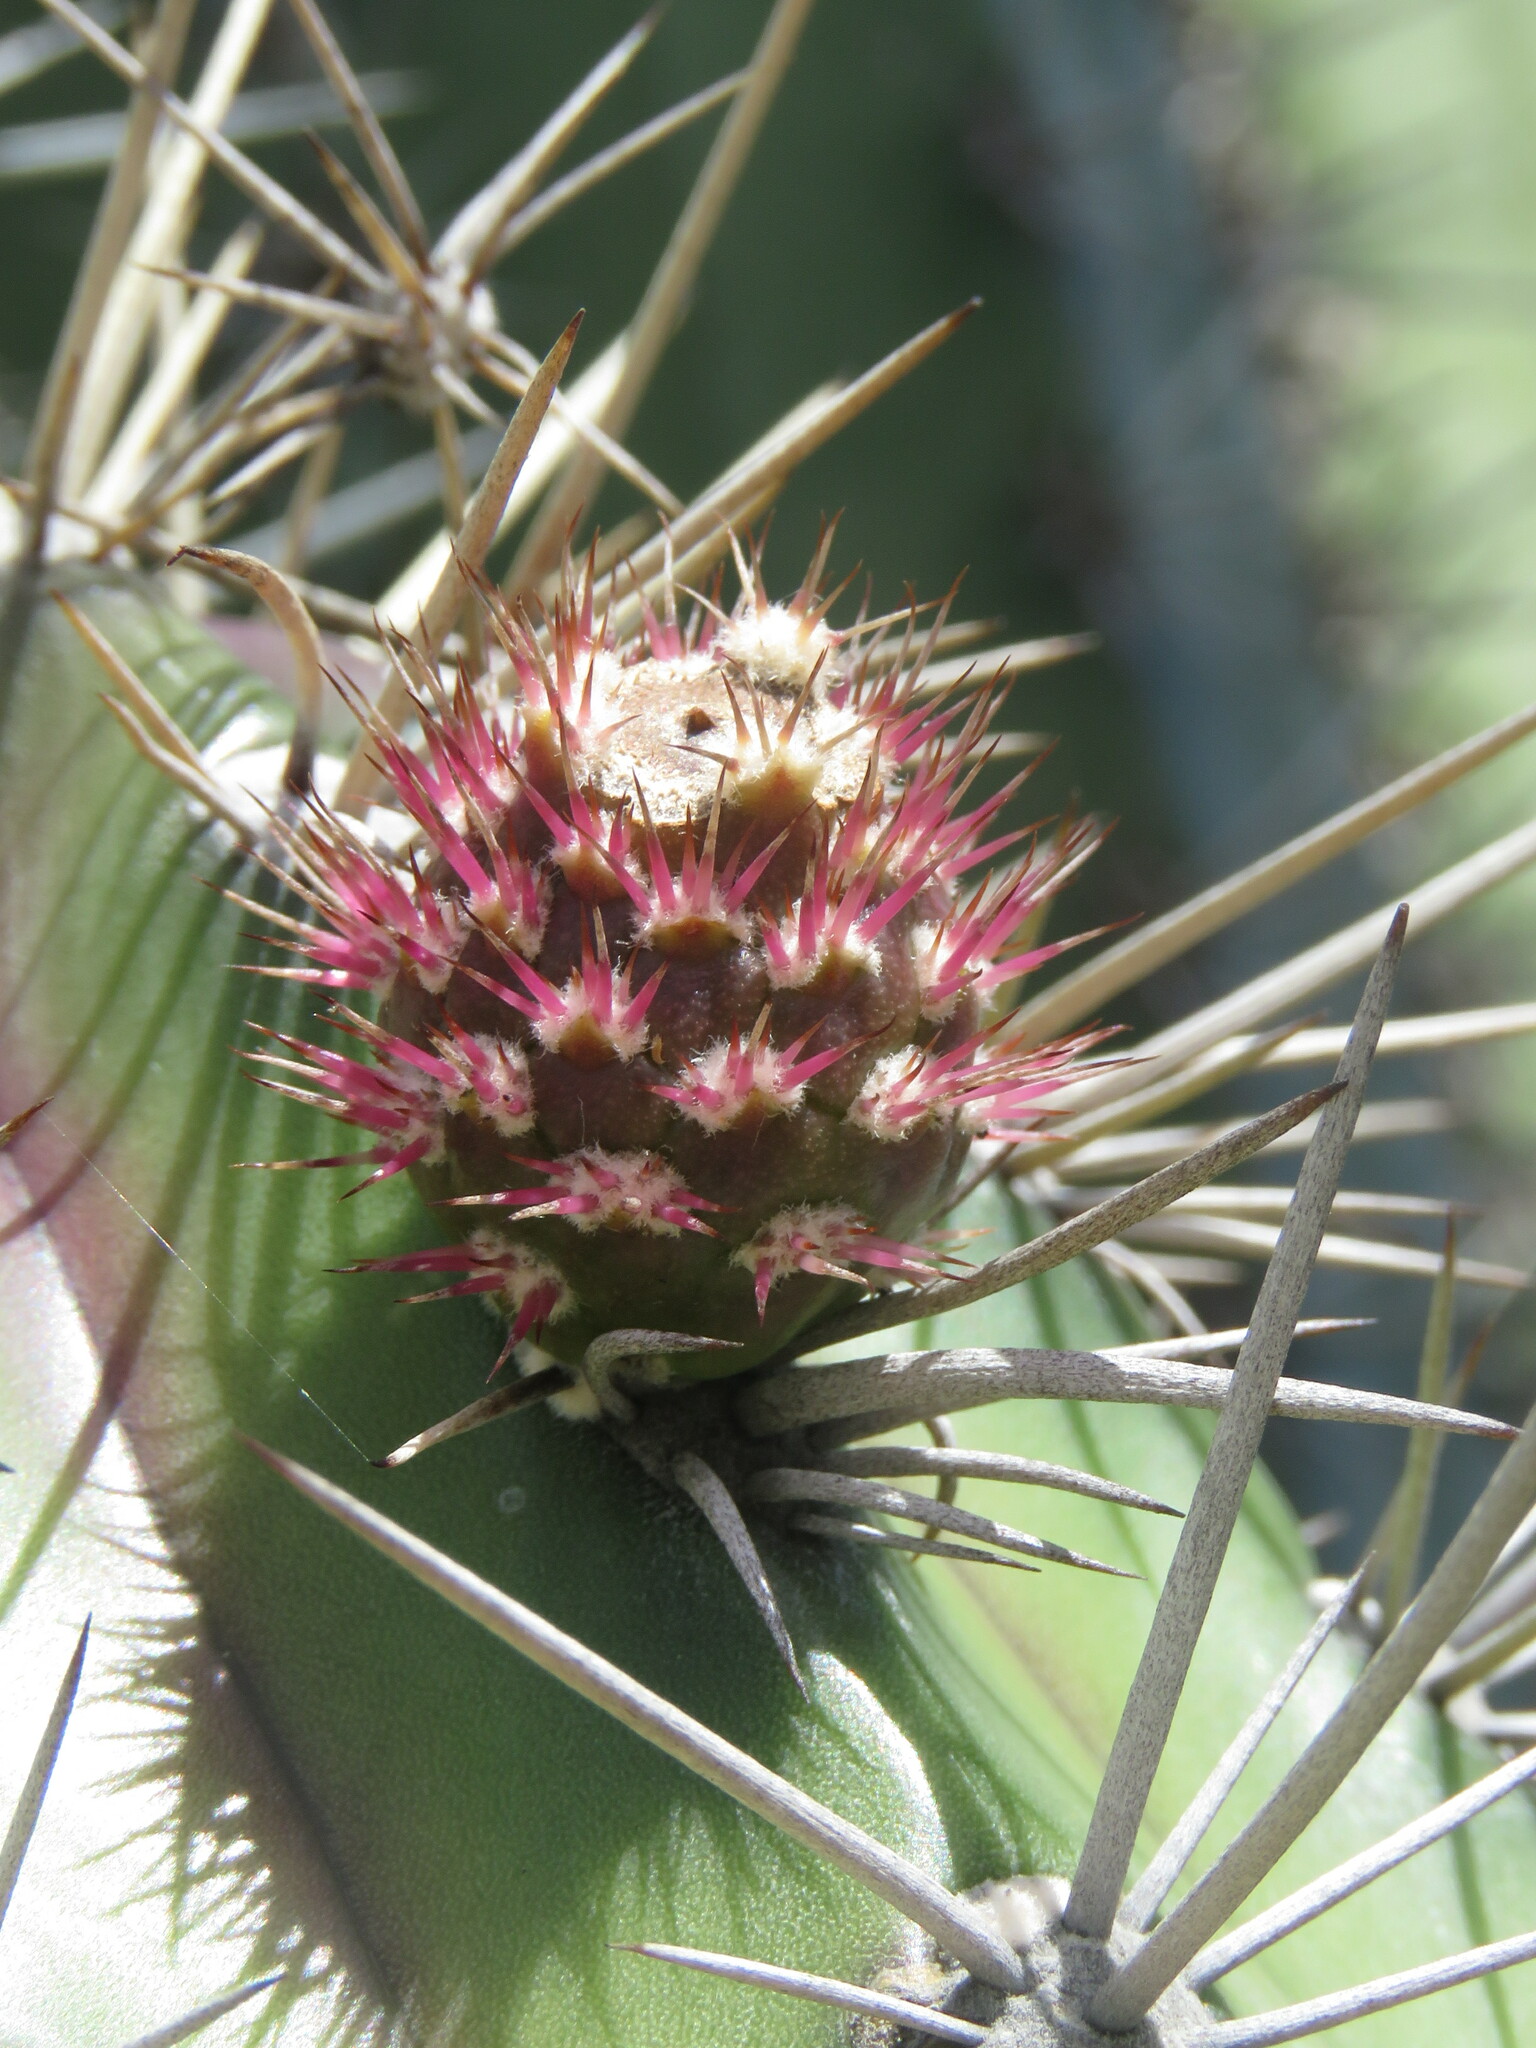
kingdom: Plantae
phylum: Tracheophyta
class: Magnoliopsida
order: Caryophyllales
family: Cactaceae
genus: Stenocereus
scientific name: Stenocereus griseus
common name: Tall candelabra cactus
